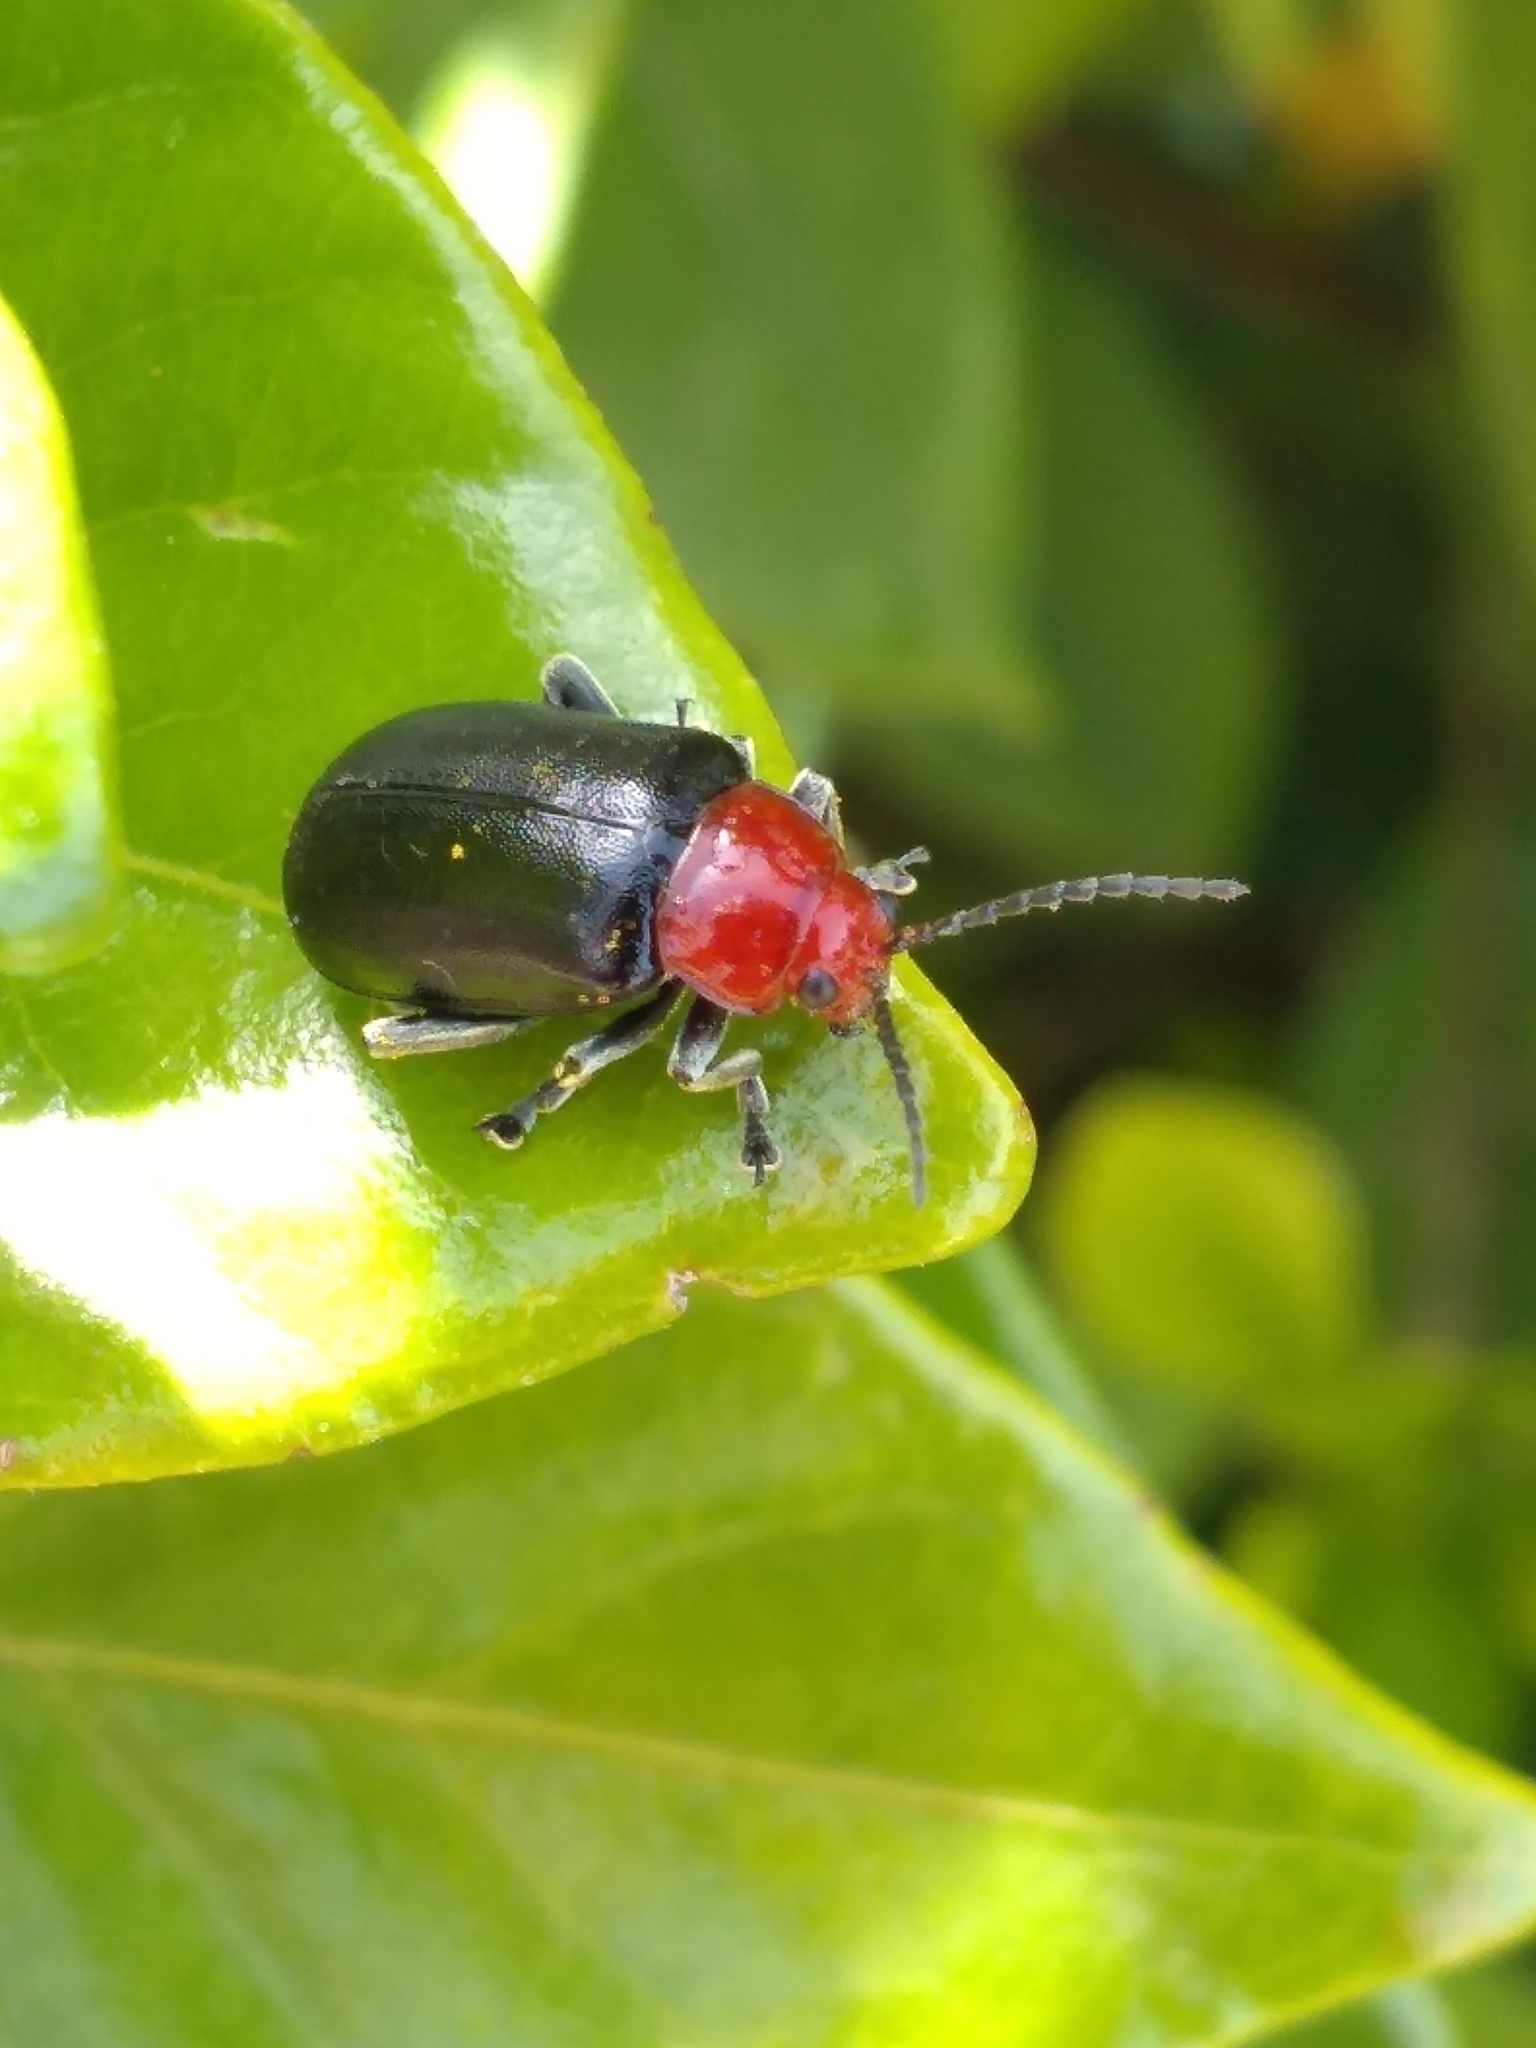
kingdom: Animalia
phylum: Arthropoda
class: Insecta
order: Coleoptera
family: Chrysomelidae
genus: Cacoscelis
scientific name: Cacoscelis
